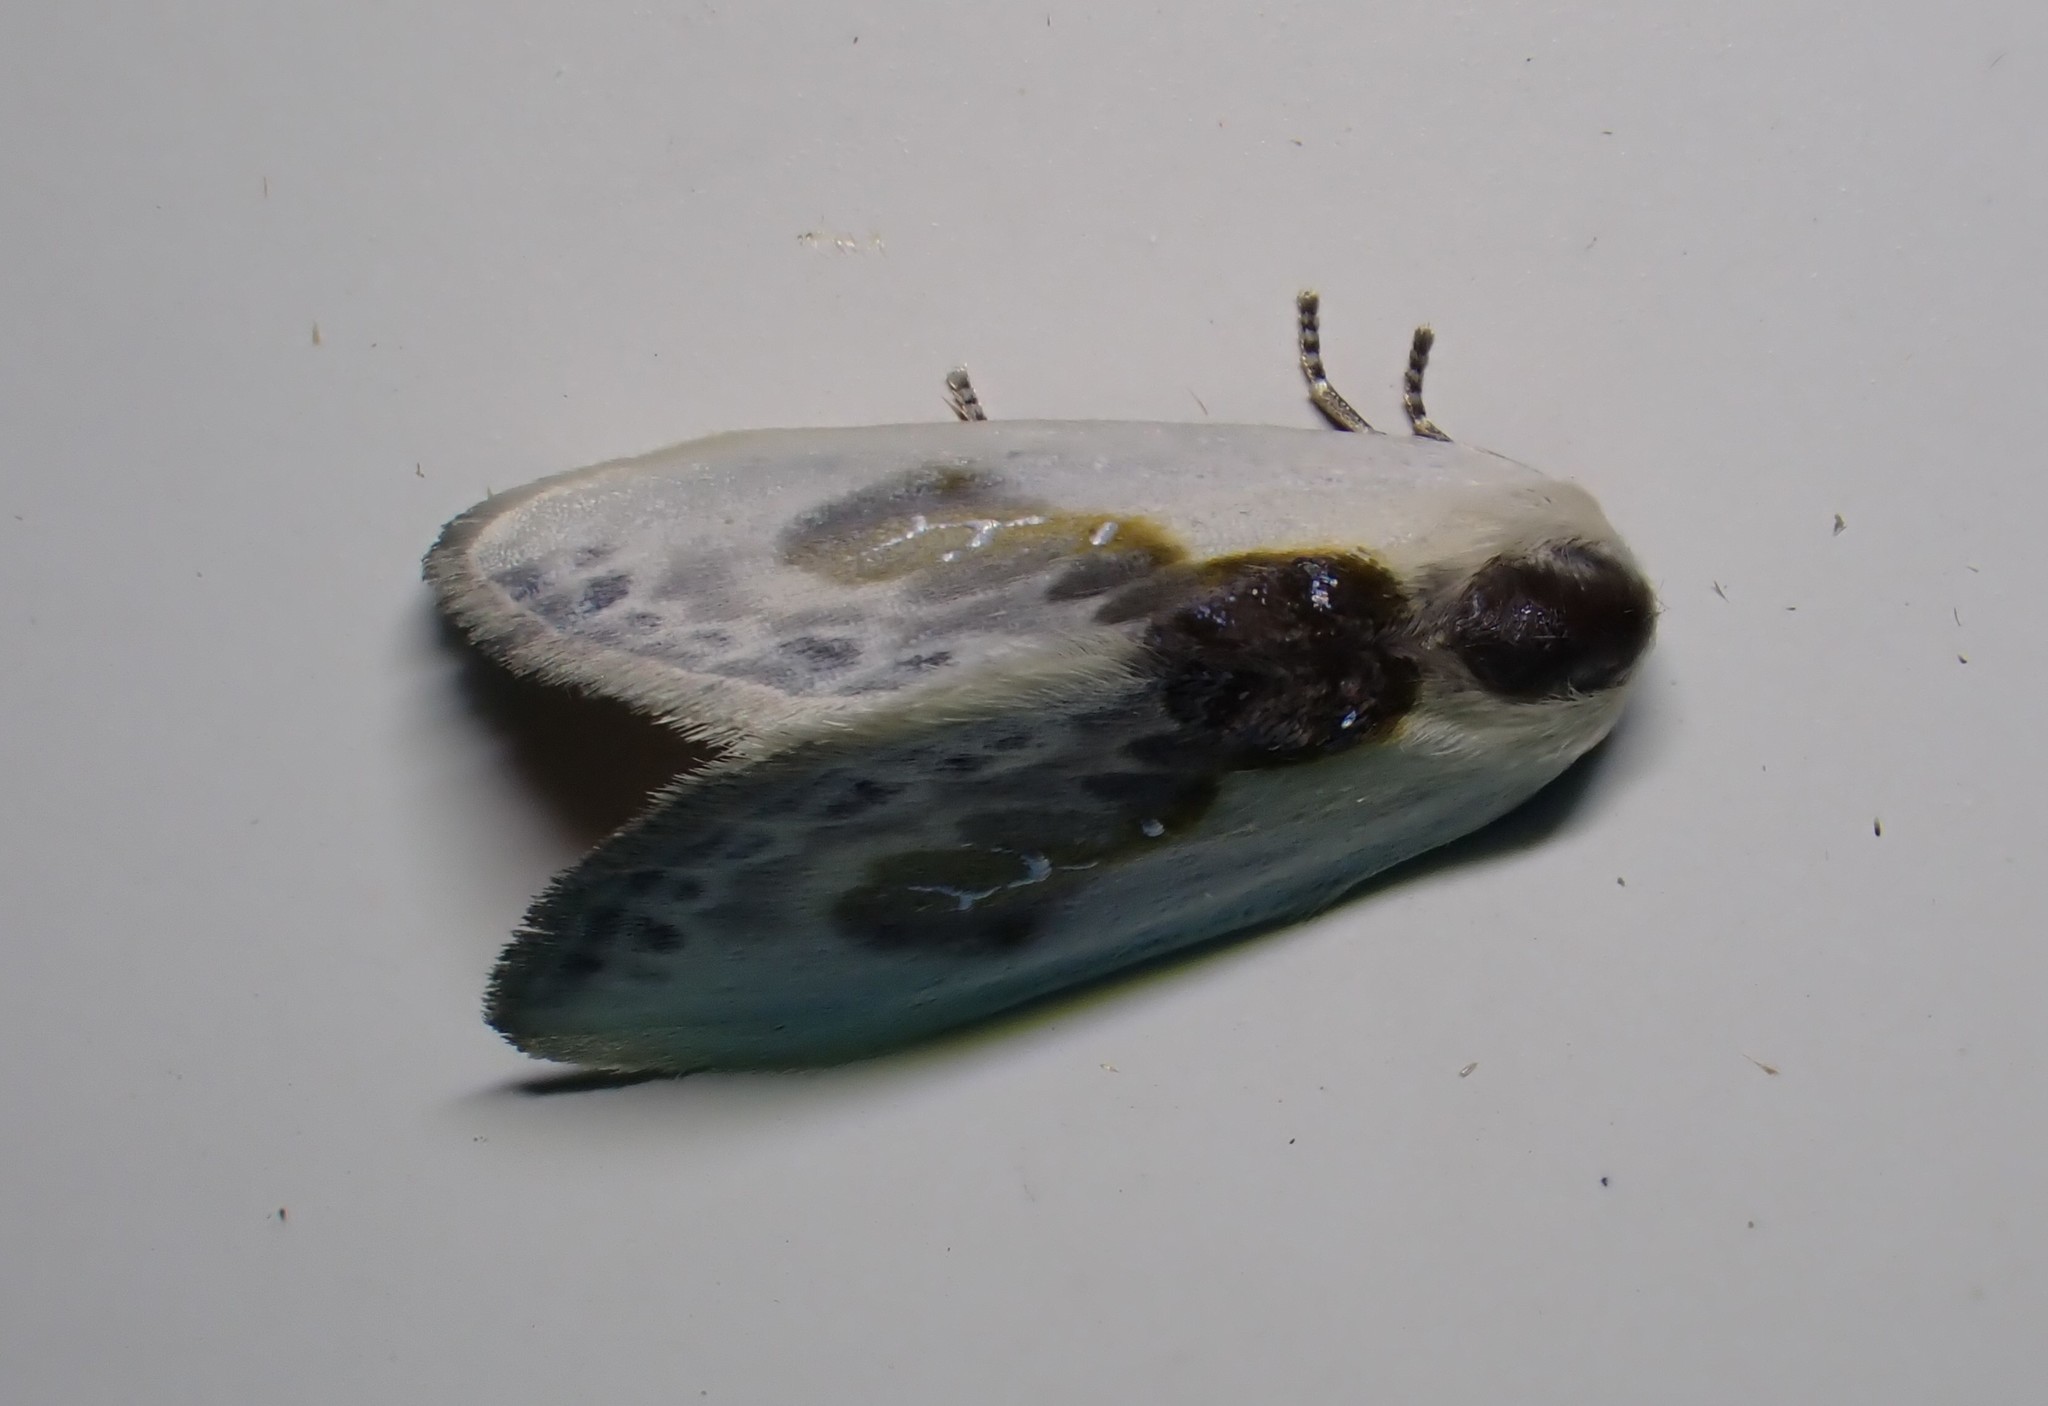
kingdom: Animalia
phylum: Arthropoda
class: Insecta
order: Lepidoptera
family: Drepanidae
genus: Cilix
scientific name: Cilix glaucata
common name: Chinese character
